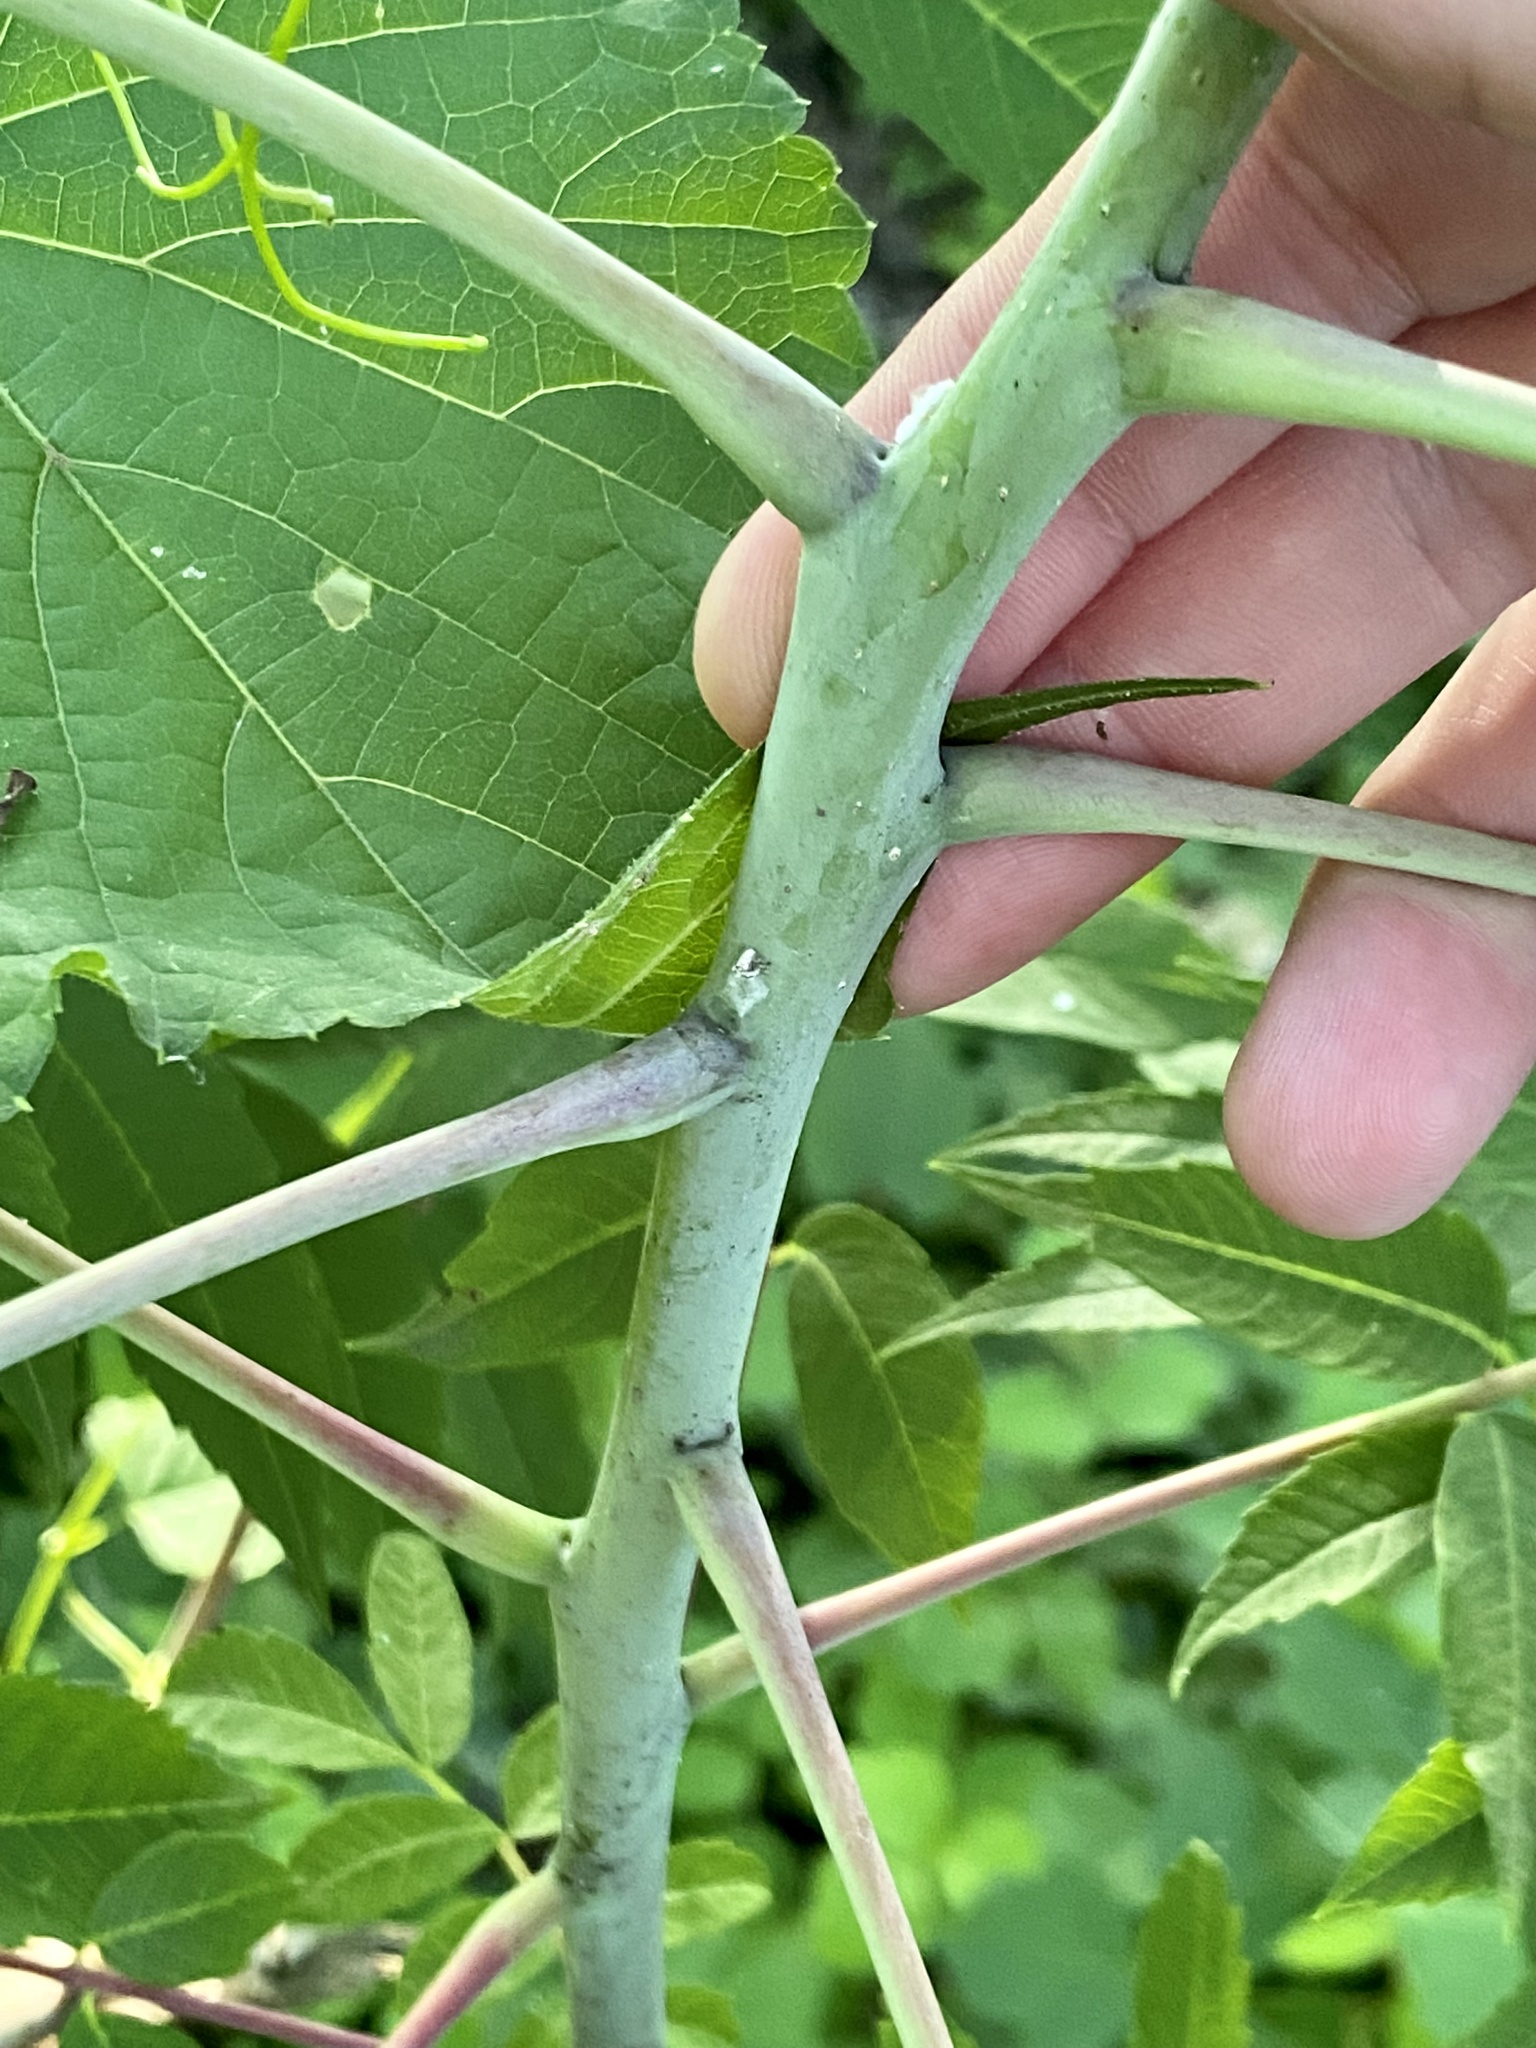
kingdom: Plantae
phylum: Tracheophyta
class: Magnoliopsida
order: Sapindales
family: Anacardiaceae
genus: Rhus
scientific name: Rhus glabra
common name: Scarlet sumac
